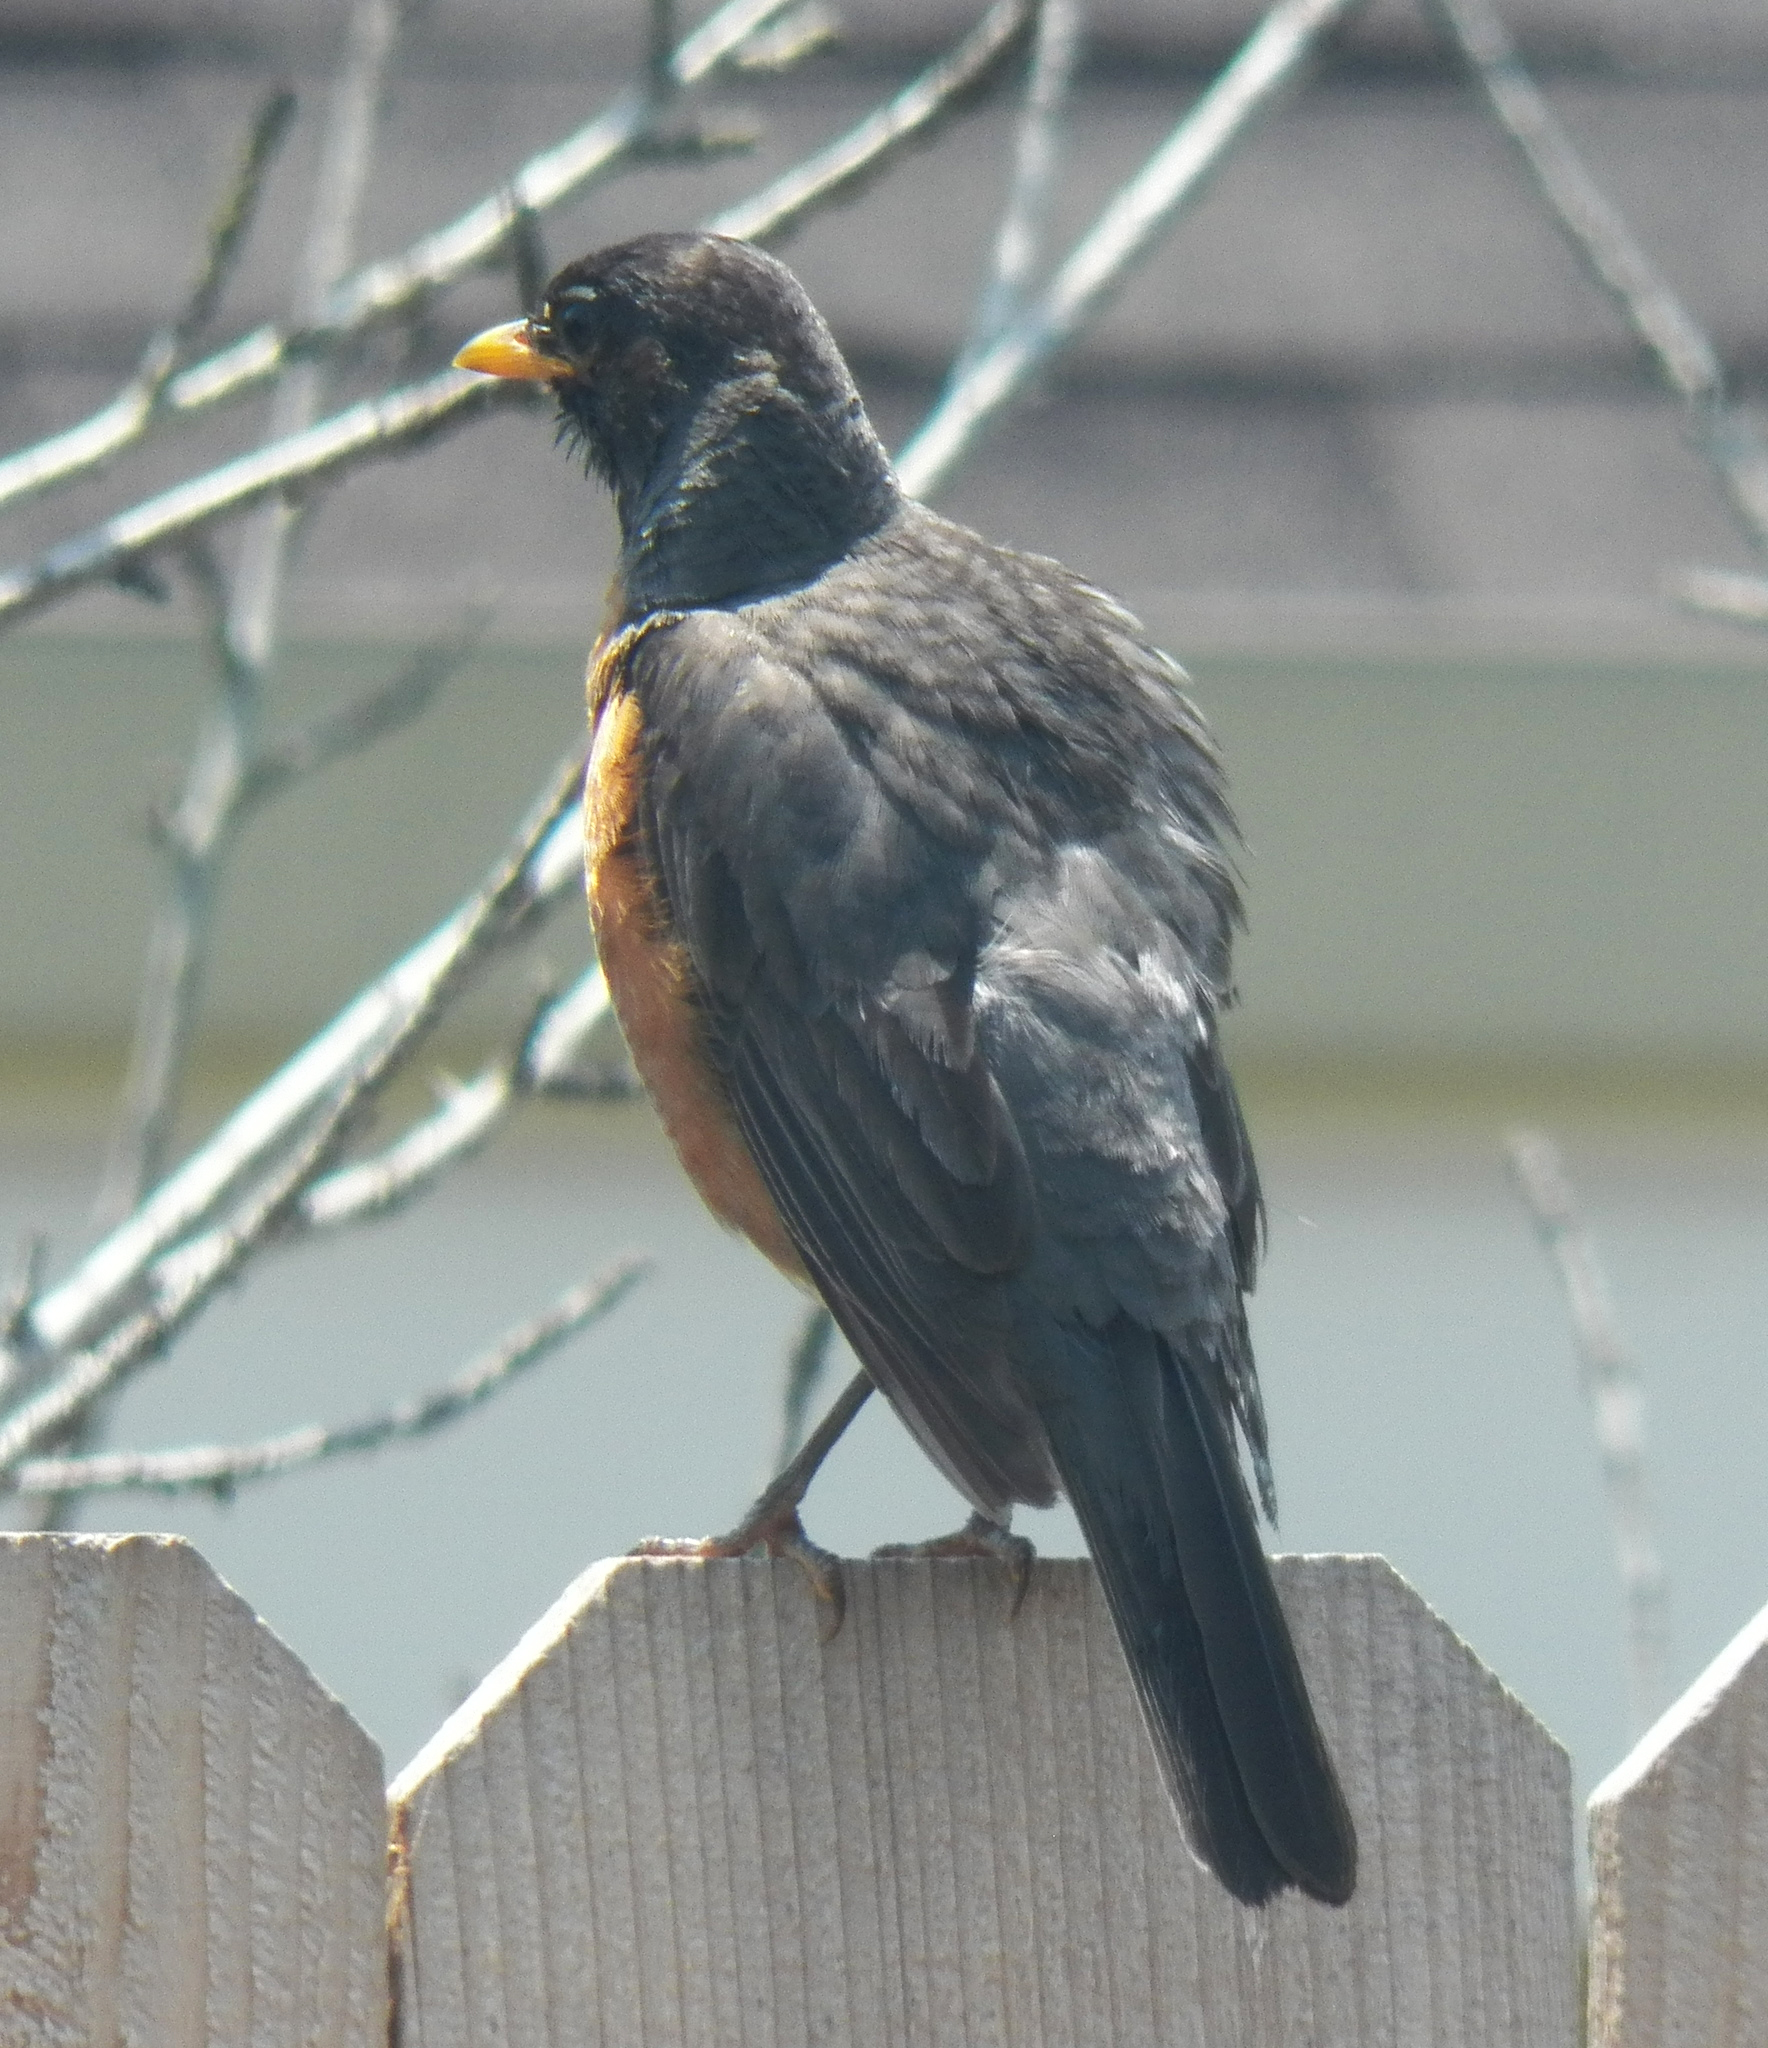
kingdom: Animalia
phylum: Chordata
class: Aves
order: Passeriformes
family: Turdidae
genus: Turdus
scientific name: Turdus migratorius
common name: American robin
